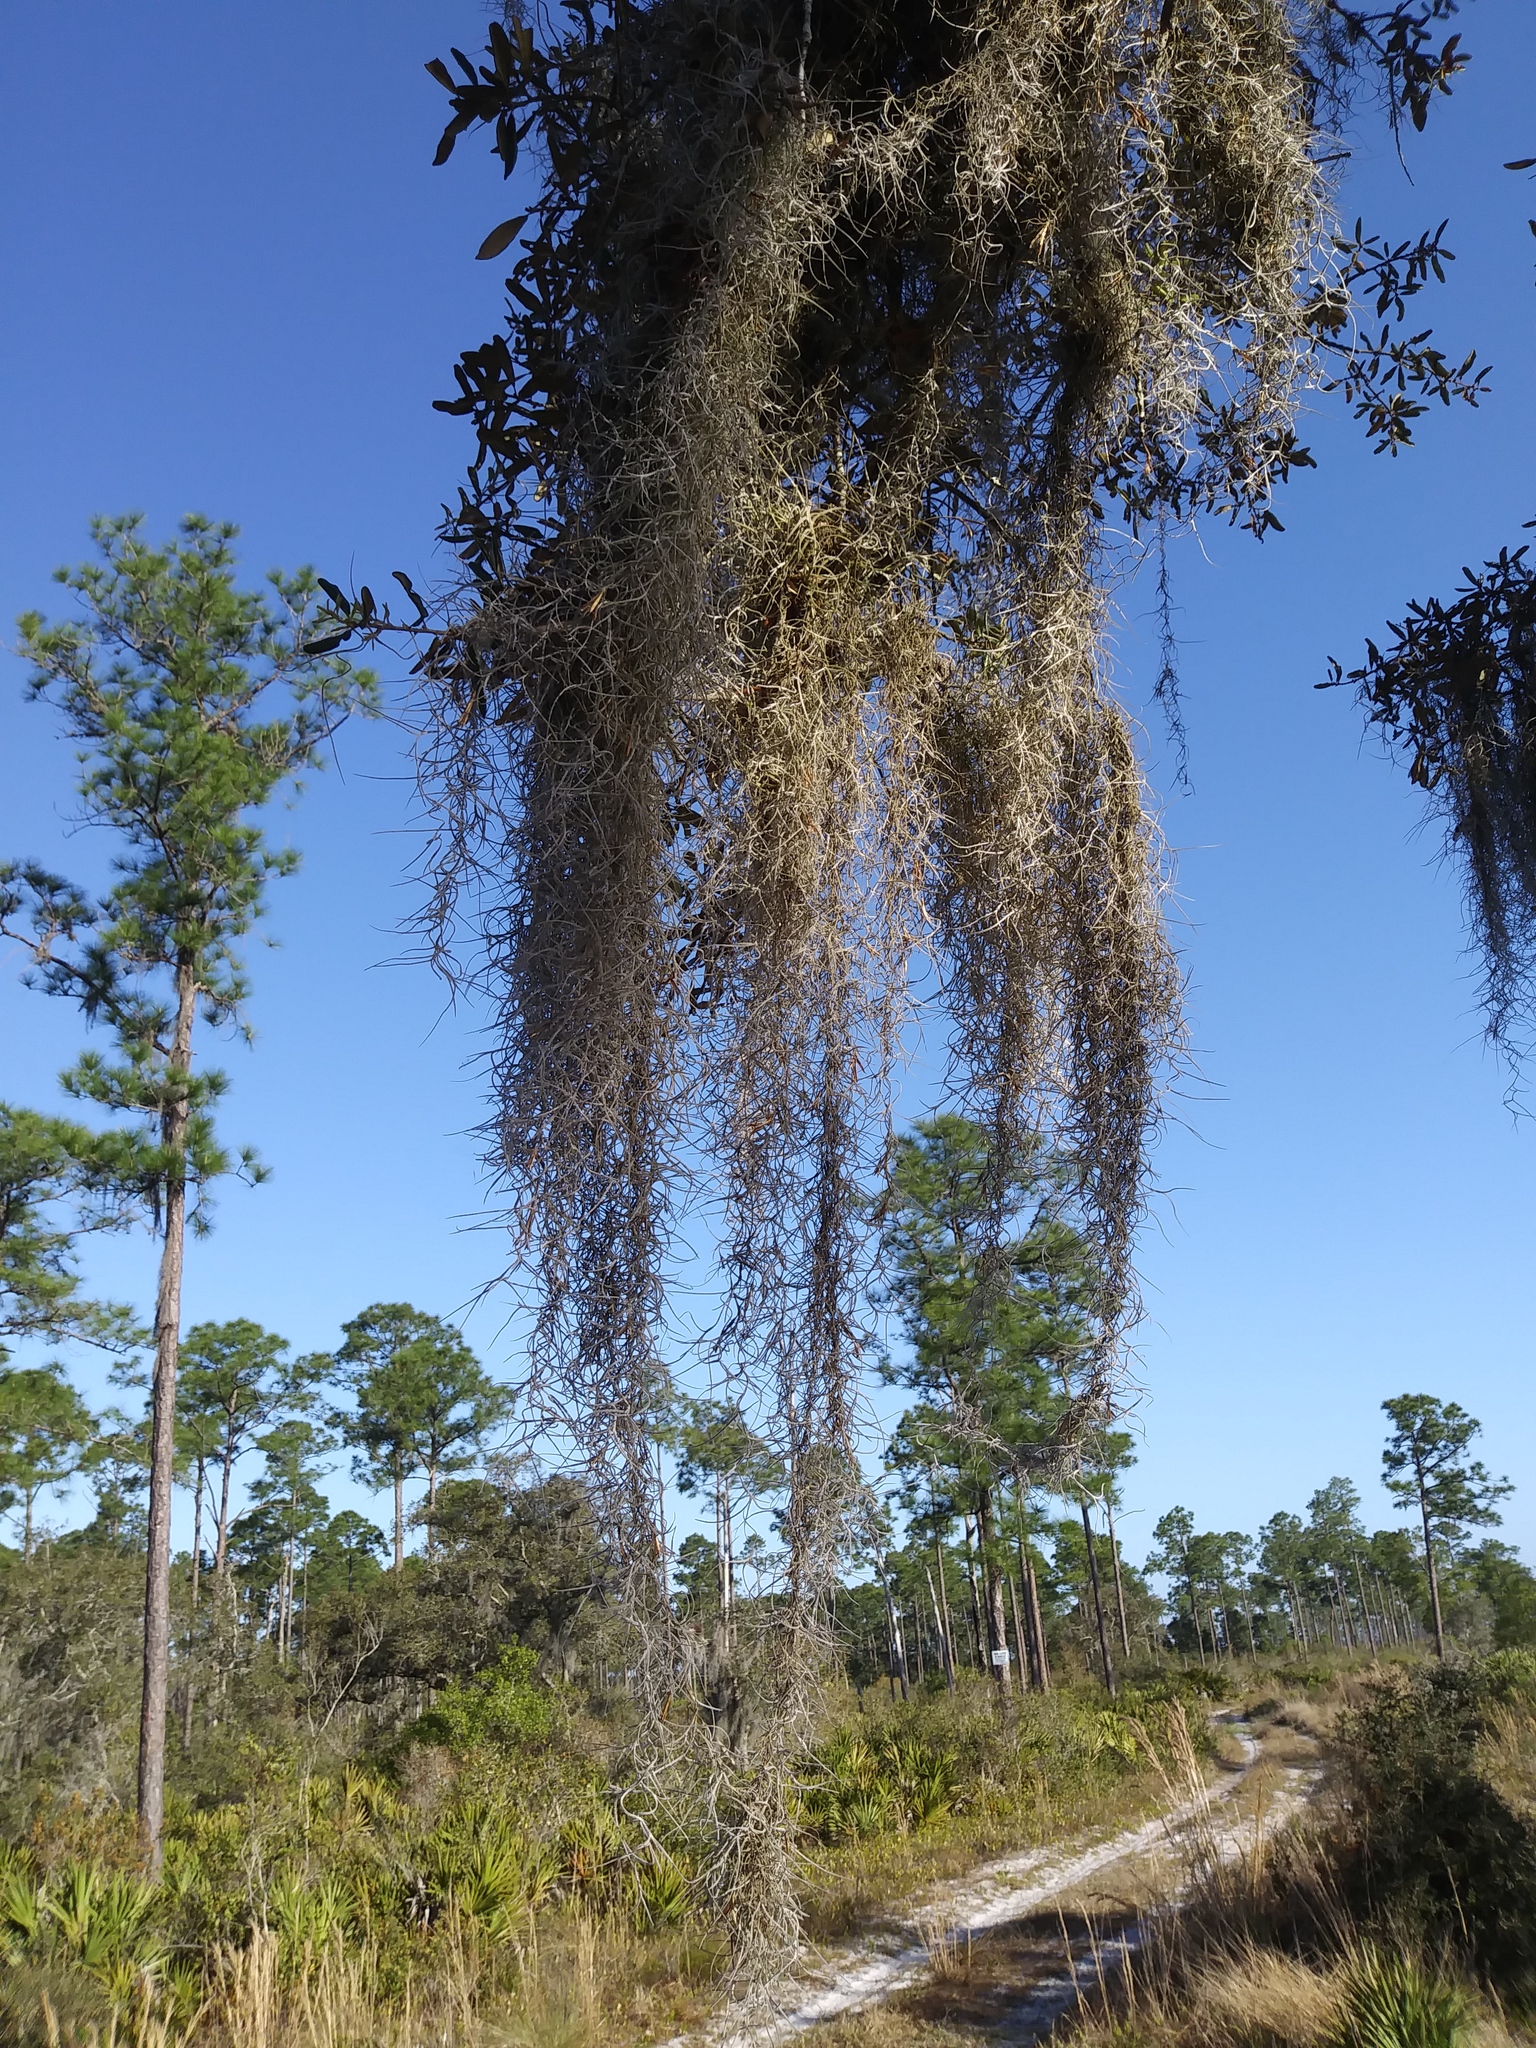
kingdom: Plantae
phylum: Tracheophyta
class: Liliopsida
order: Poales
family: Bromeliaceae
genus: Tillandsia
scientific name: Tillandsia usneoides
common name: Spanish moss
